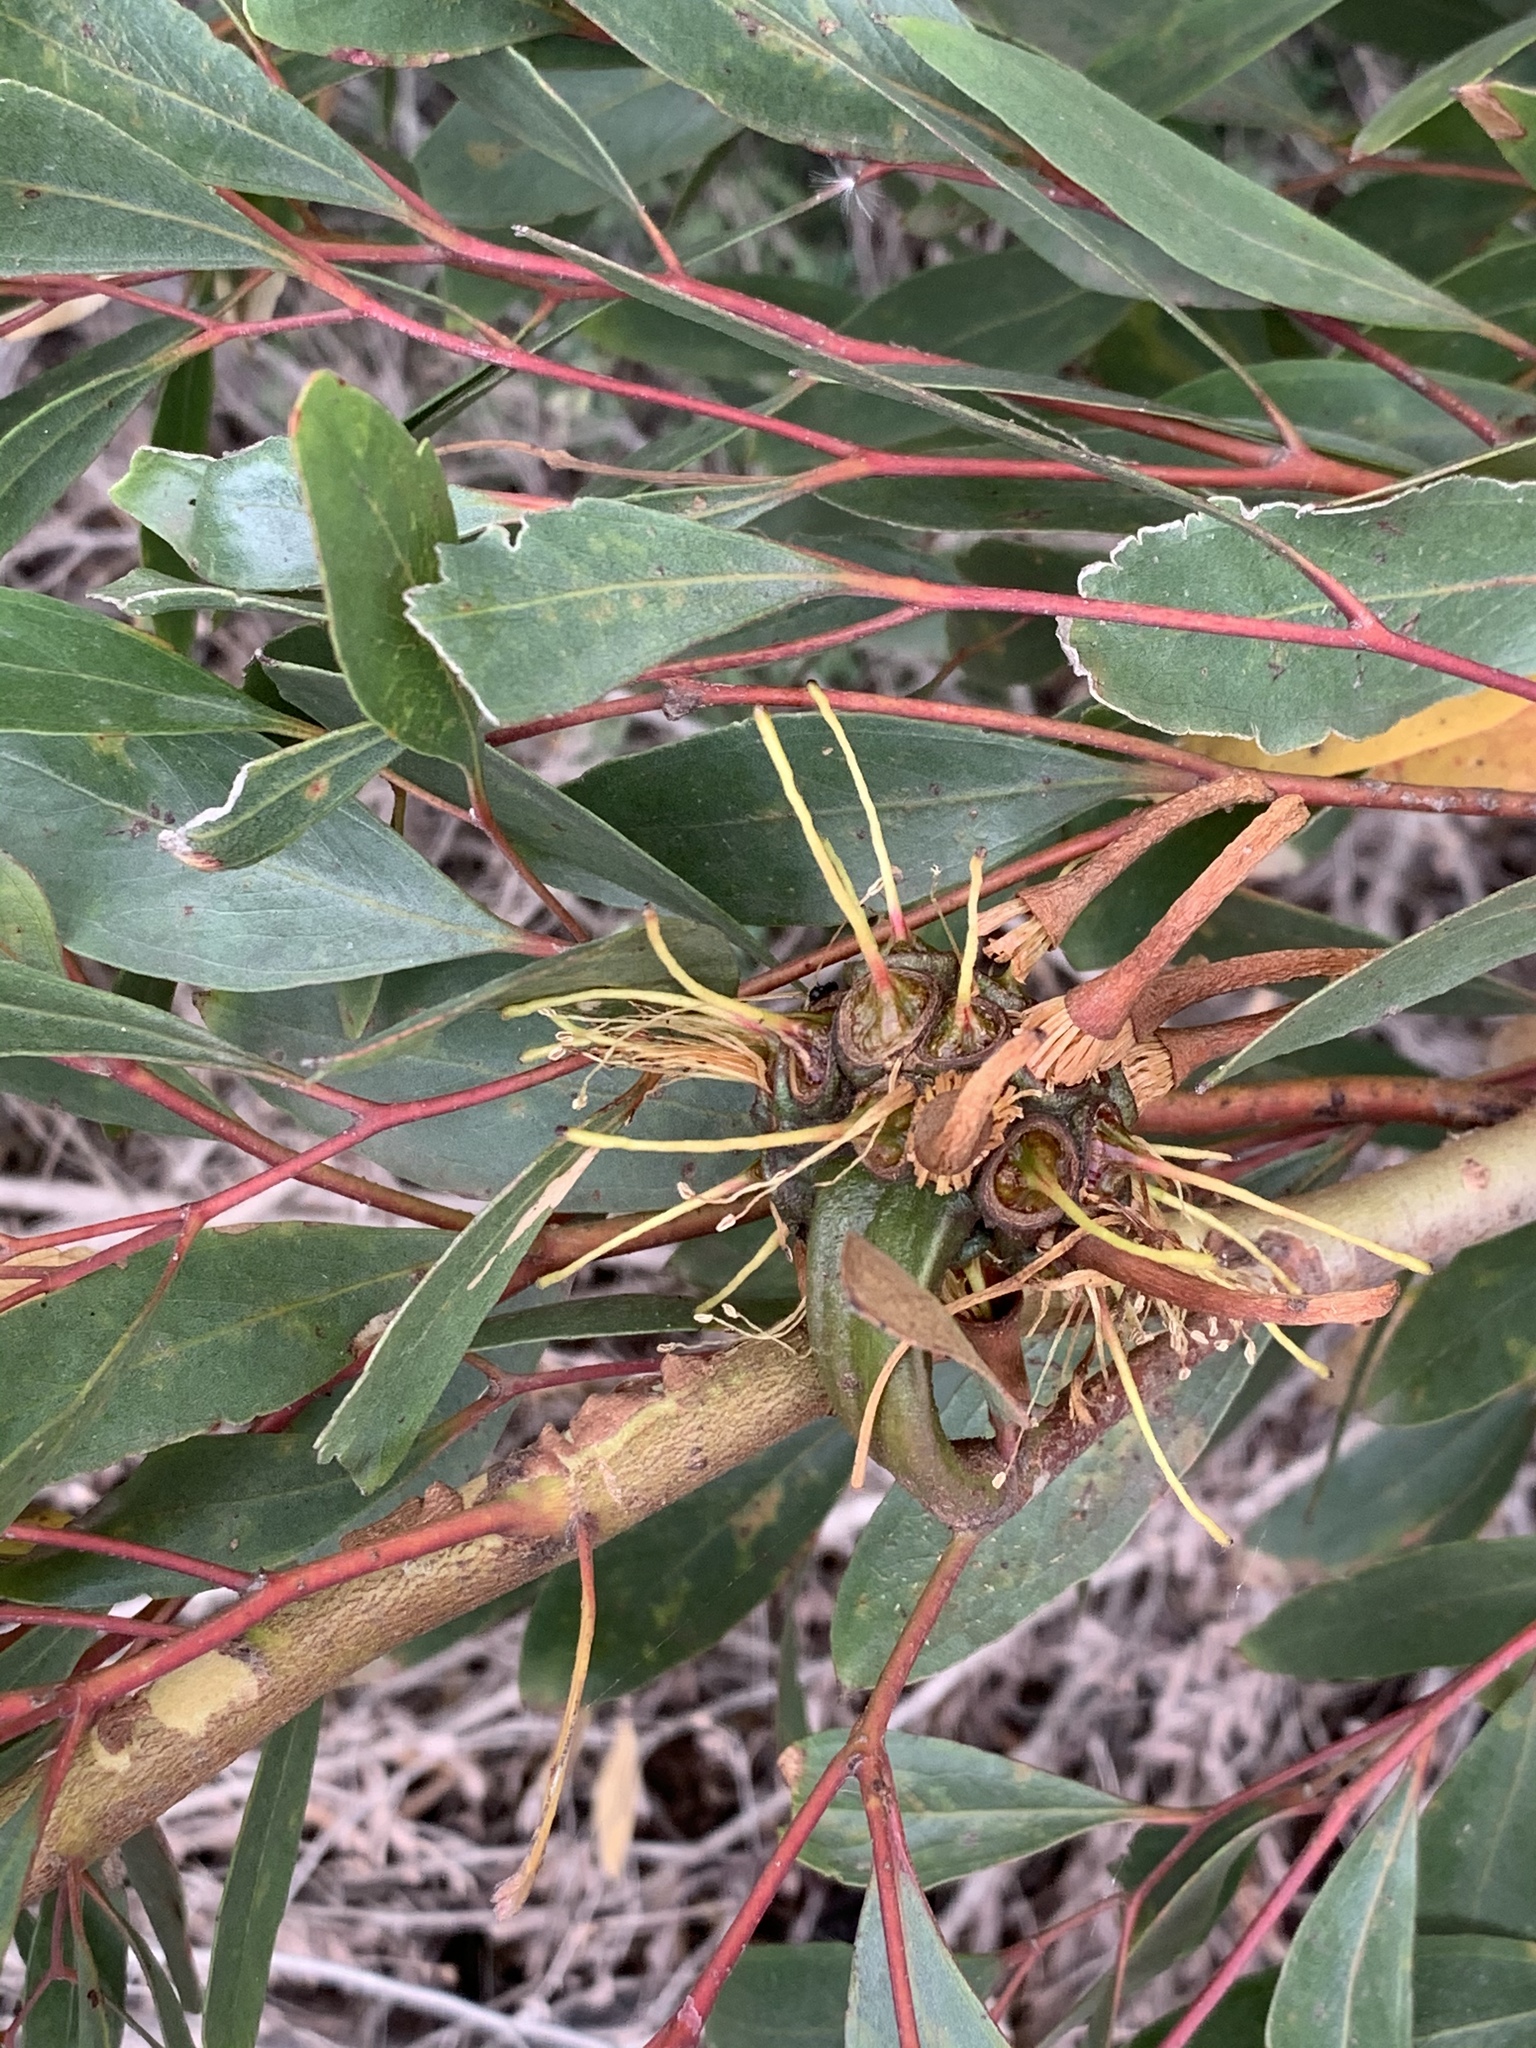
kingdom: Plantae
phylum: Tracheophyta
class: Magnoliopsida
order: Myrtales
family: Myrtaceae
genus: Eucalyptus
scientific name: Eucalyptus conferruminata
